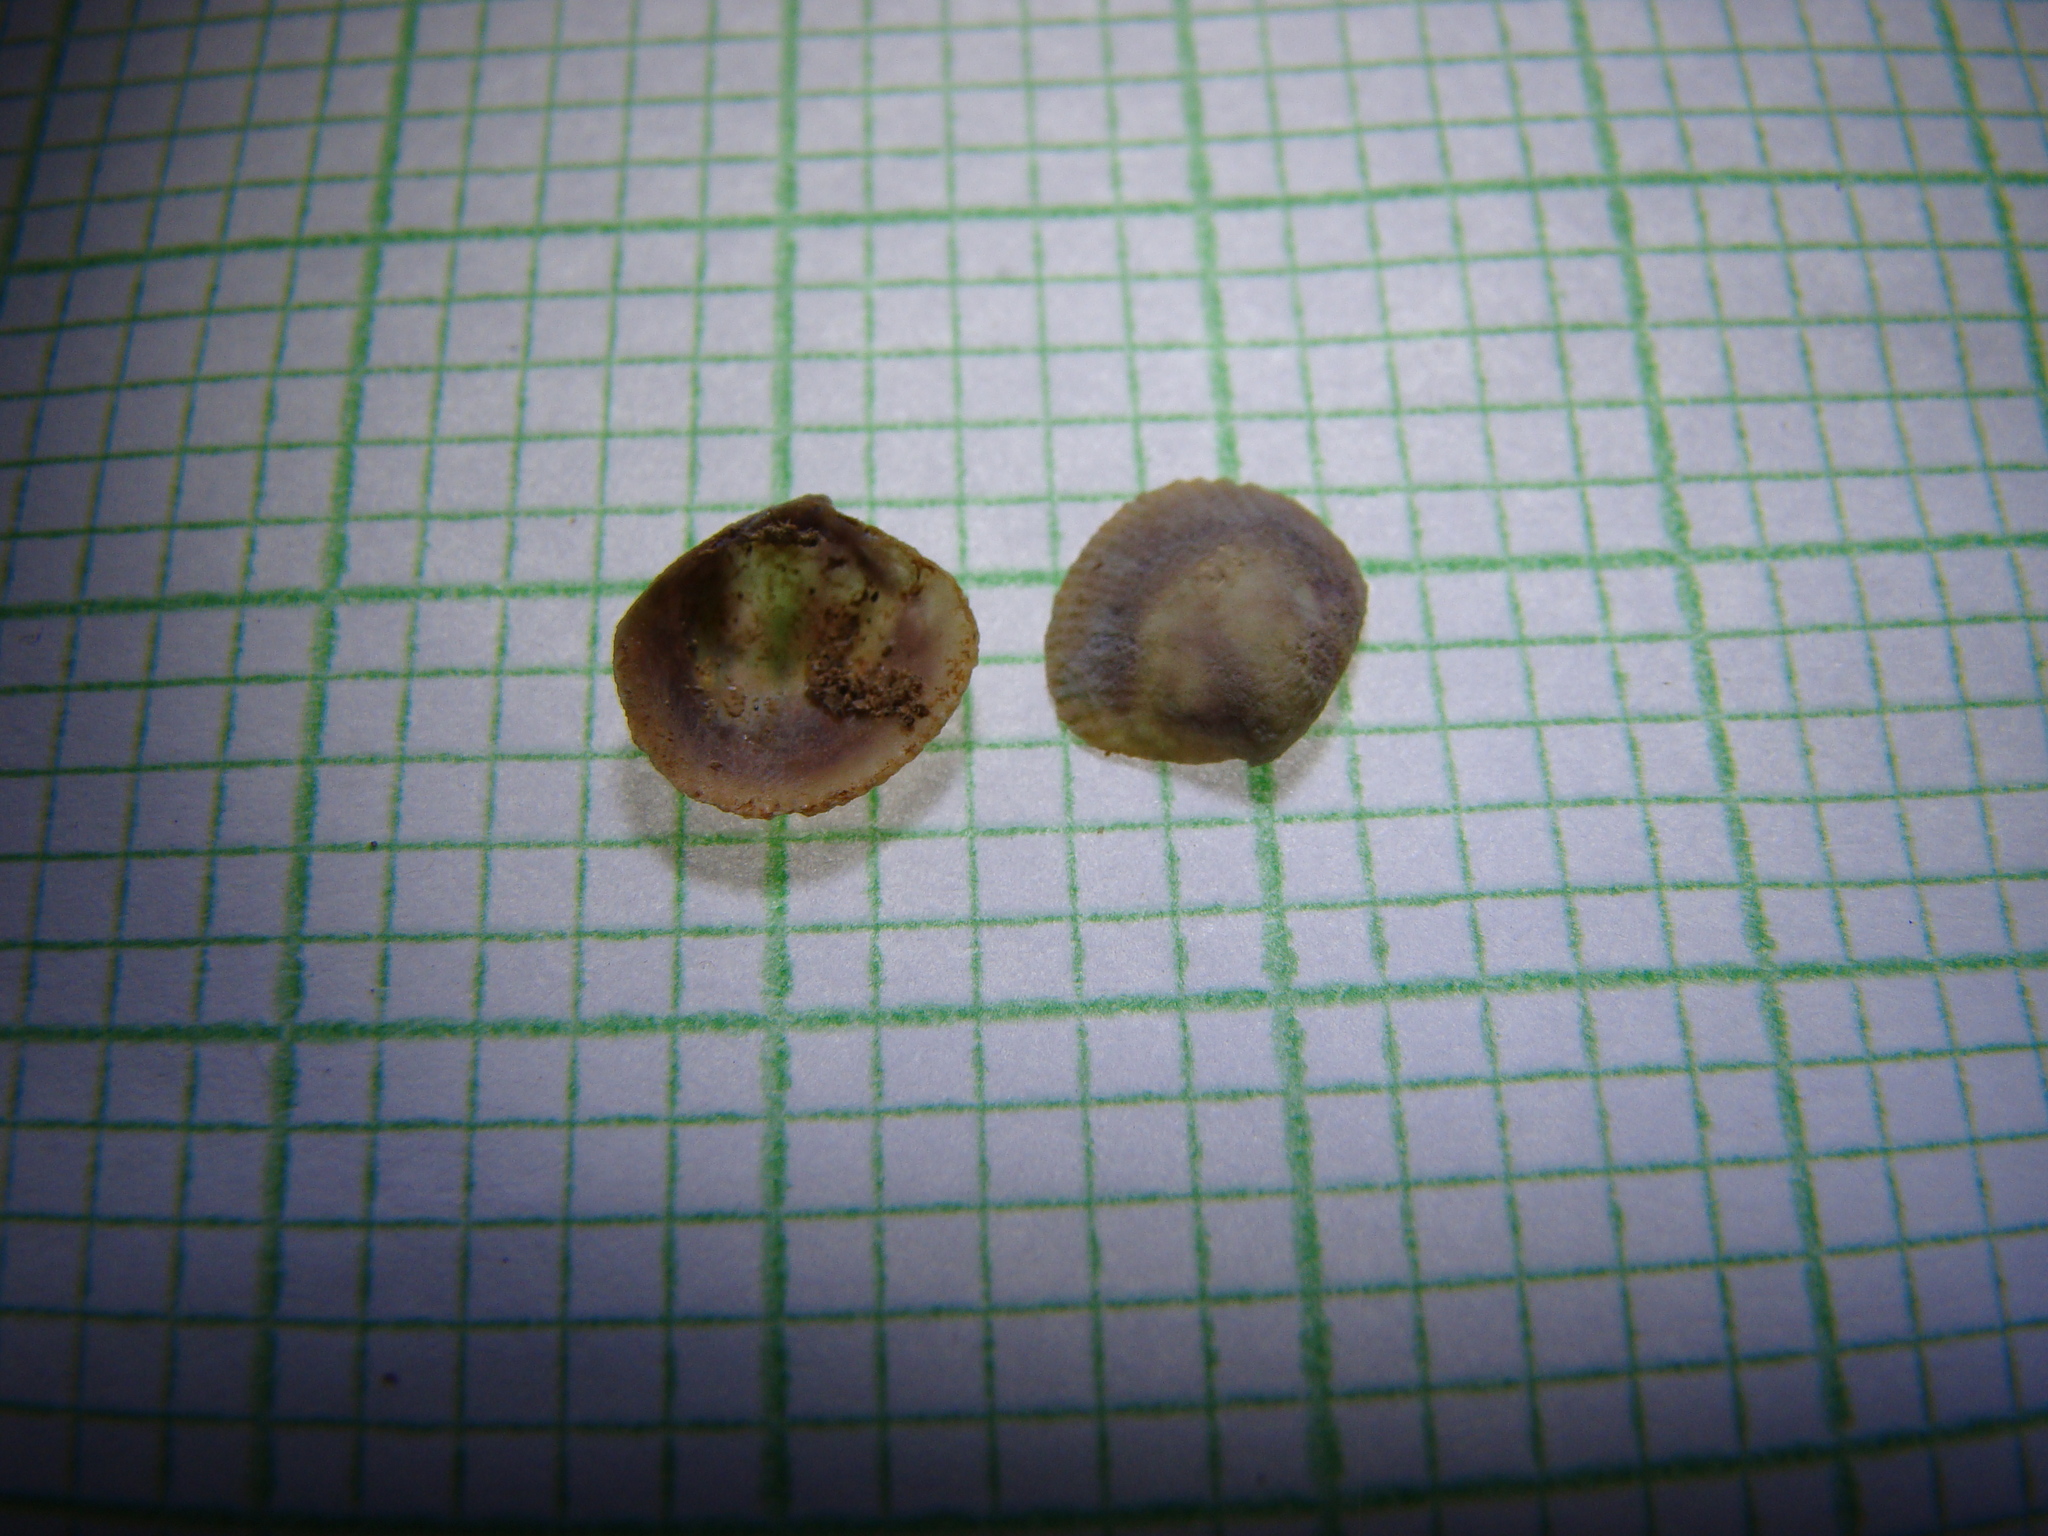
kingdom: Animalia
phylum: Mollusca
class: Bivalvia
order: Venerida
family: Veneridae
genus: Austrovenus
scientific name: Austrovenus stutchburyi
